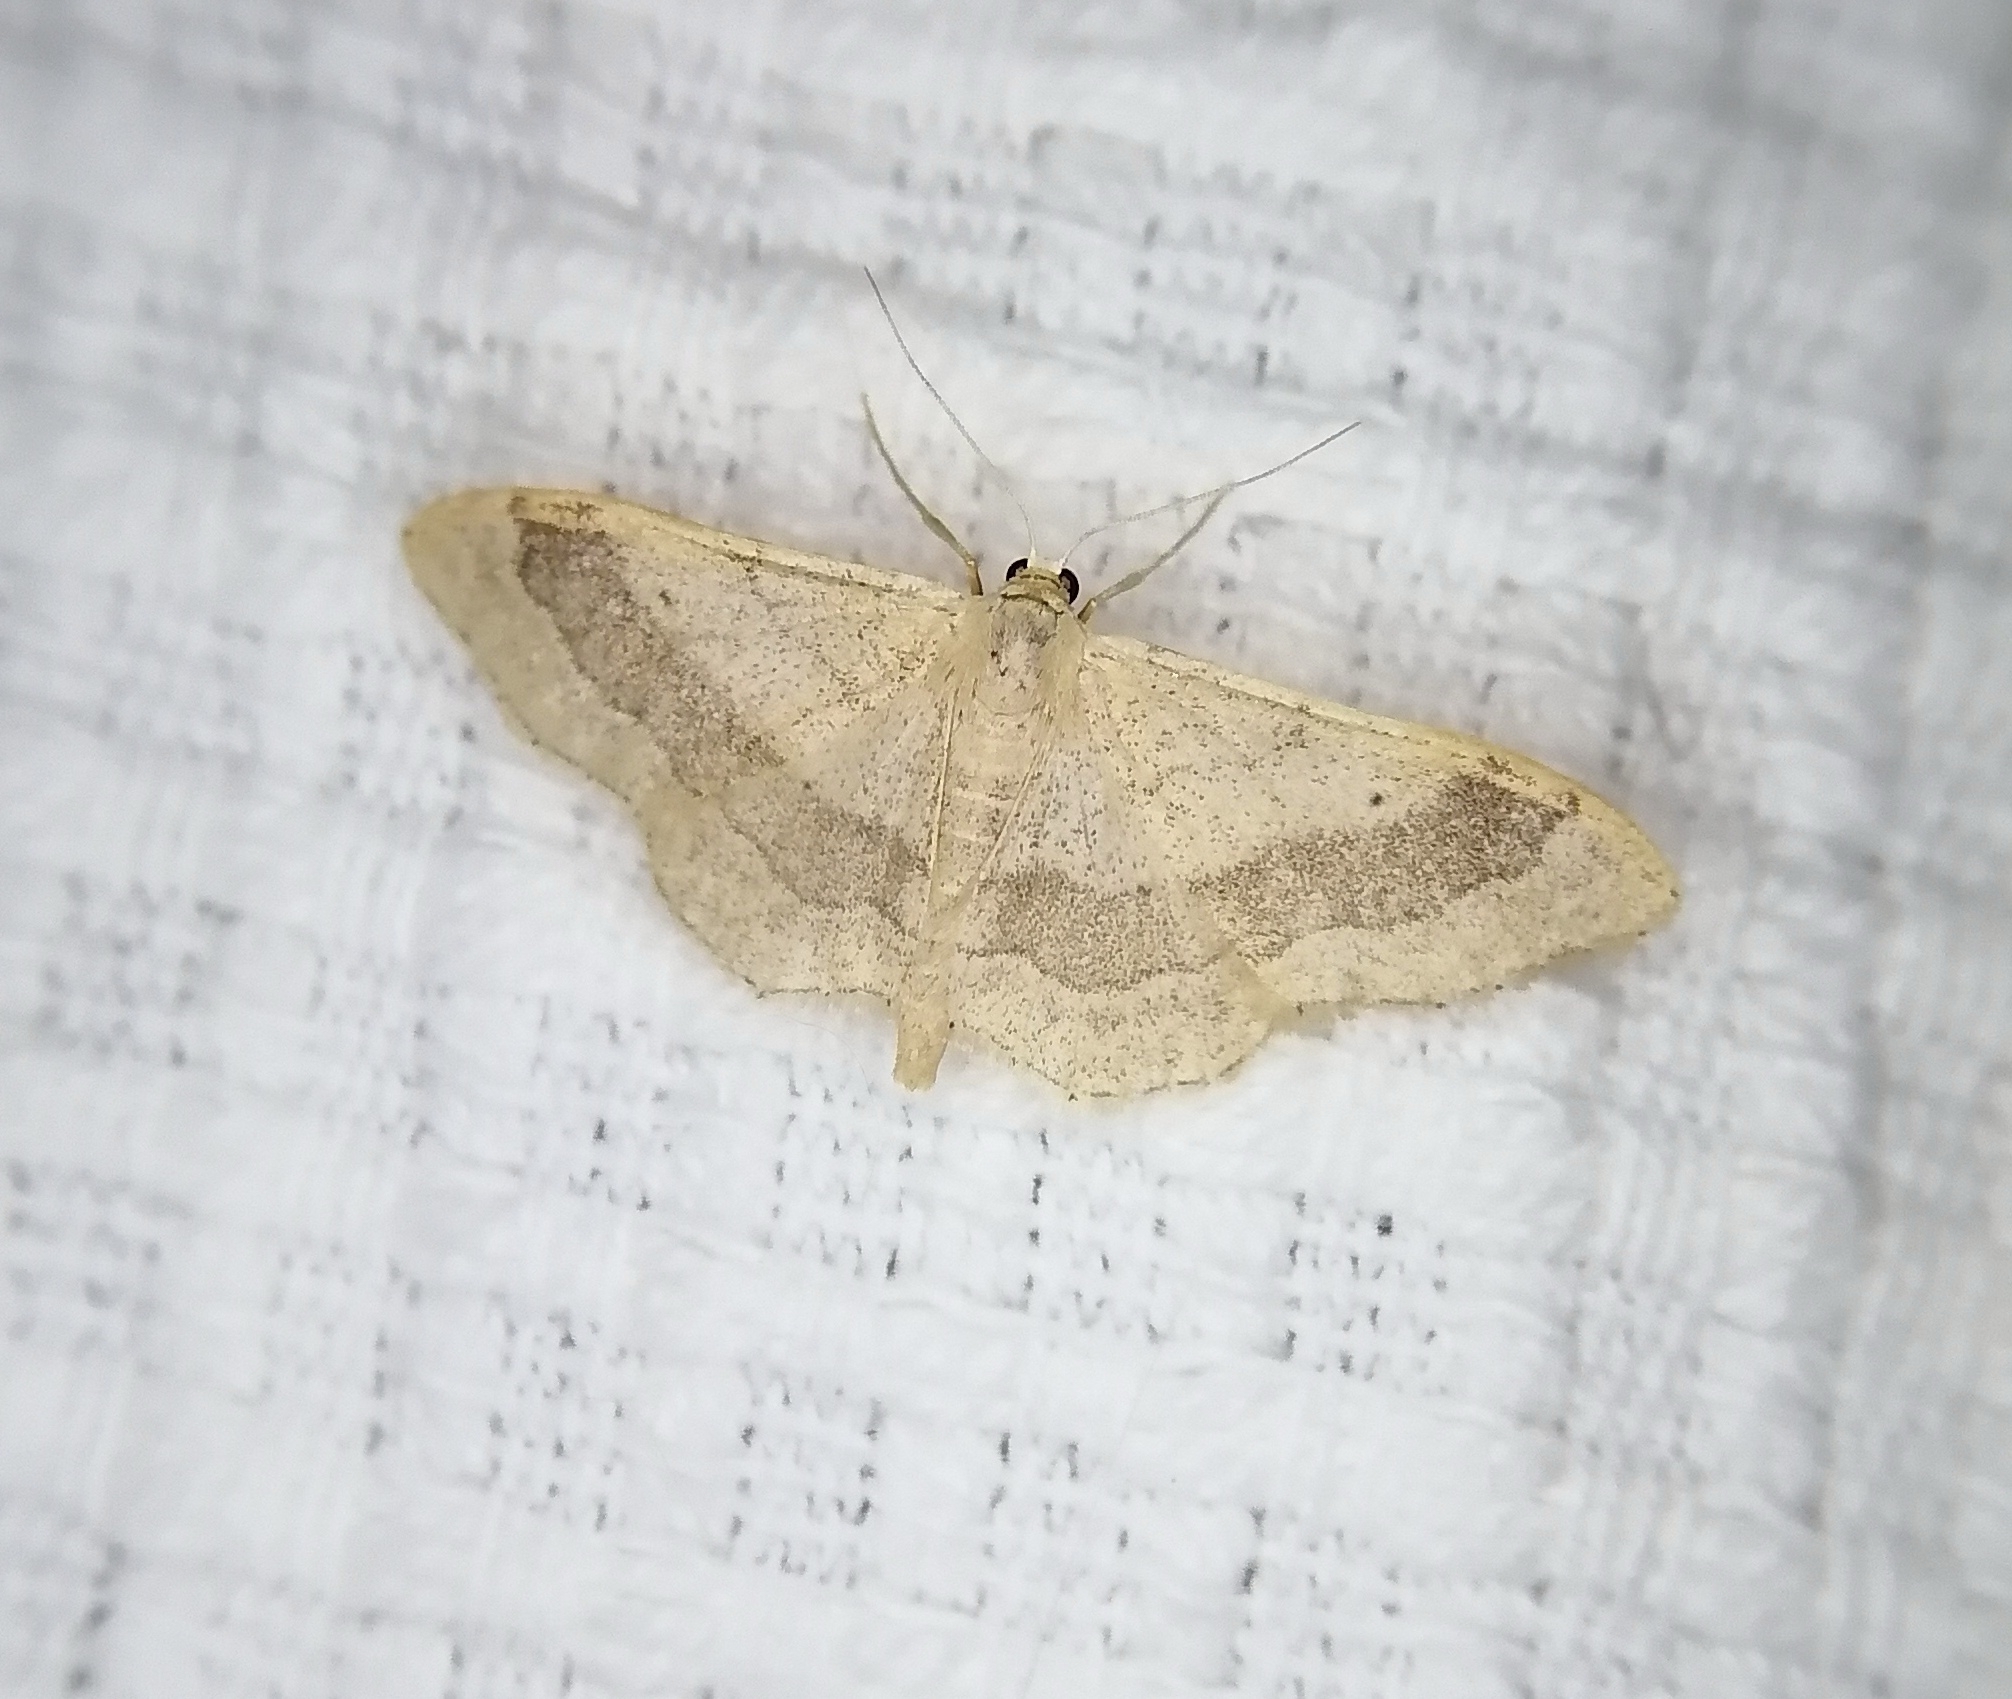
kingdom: Animalia
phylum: Arthropoda
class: Insecta
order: Lepidoptera
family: Geometridae
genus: Idaea
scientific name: Idaea aversata
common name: Riband wave
